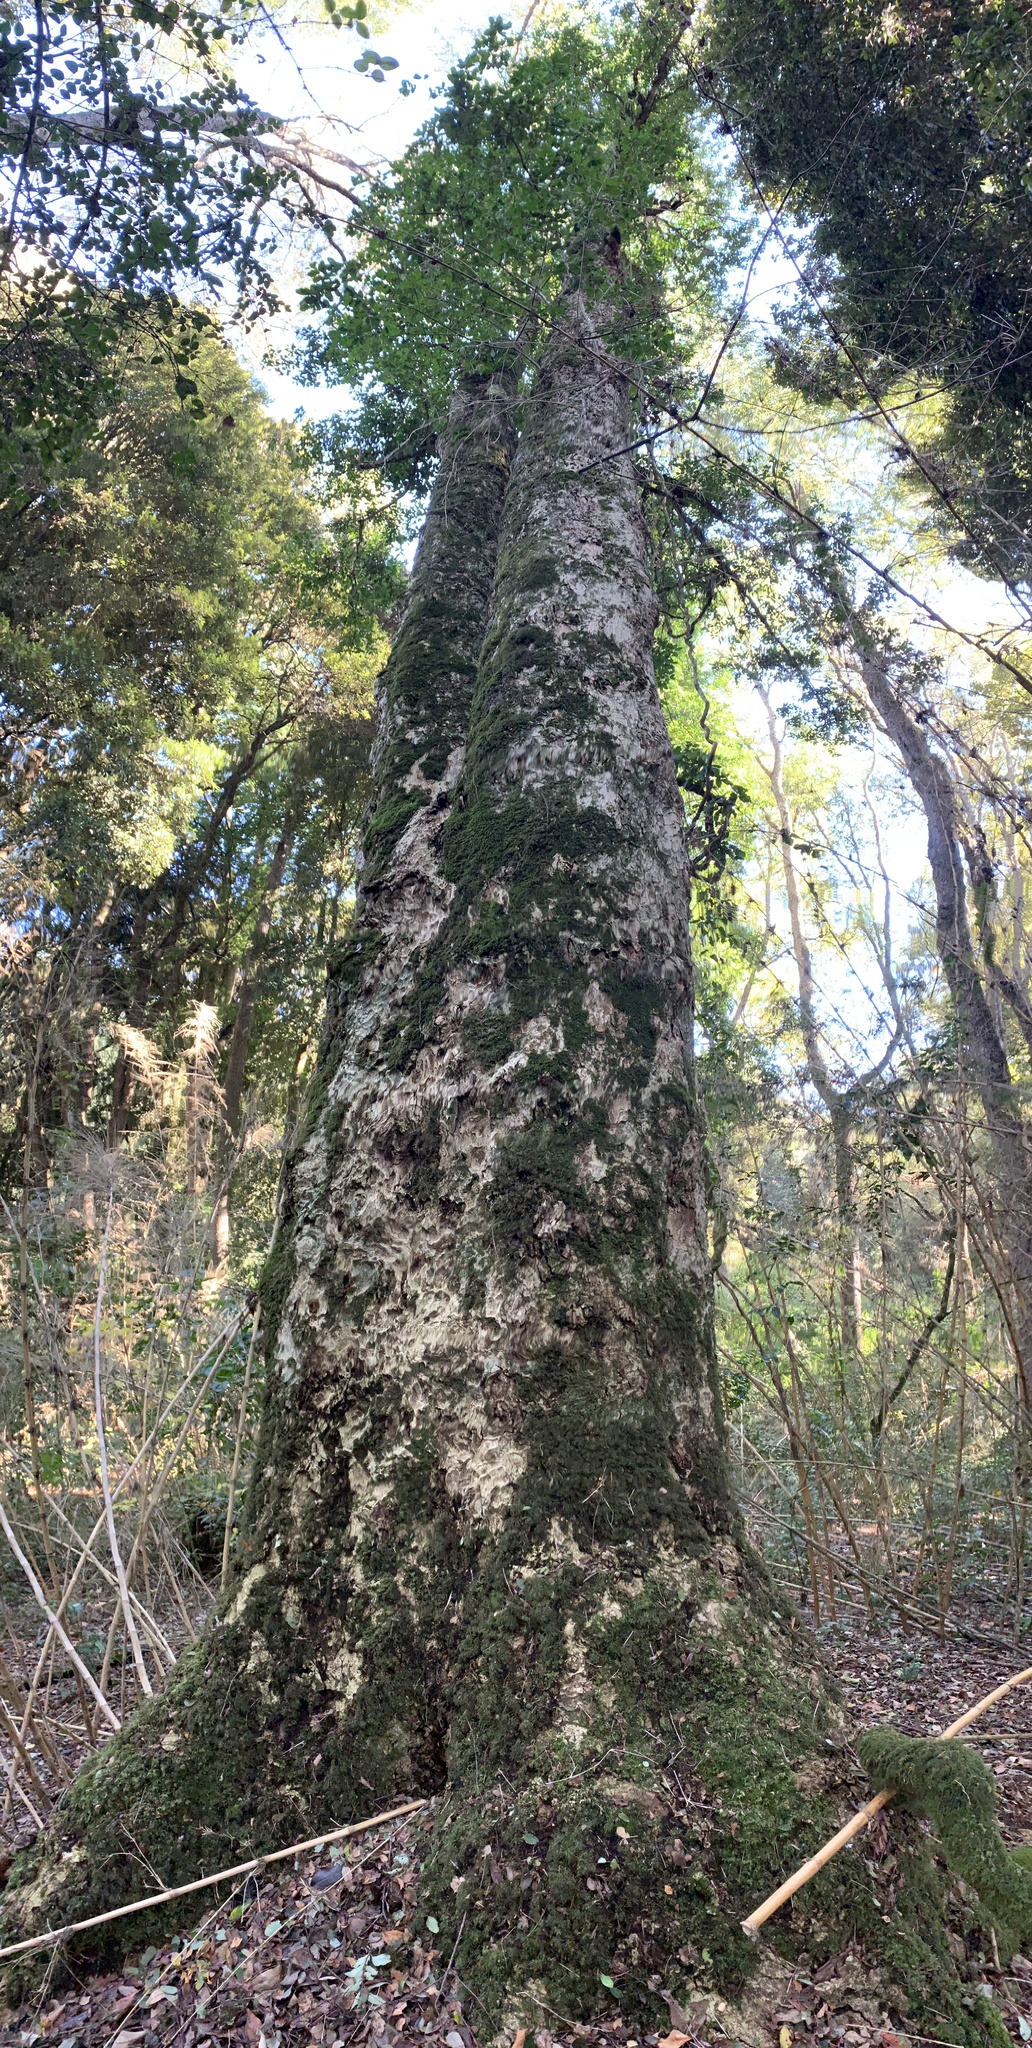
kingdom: Plantae
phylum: Tracheophyta
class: Magnoliopsida
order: Laurales
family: Atherospermataceae
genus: Laurelia
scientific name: Laurelia sempervirens
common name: Chilean laurel
